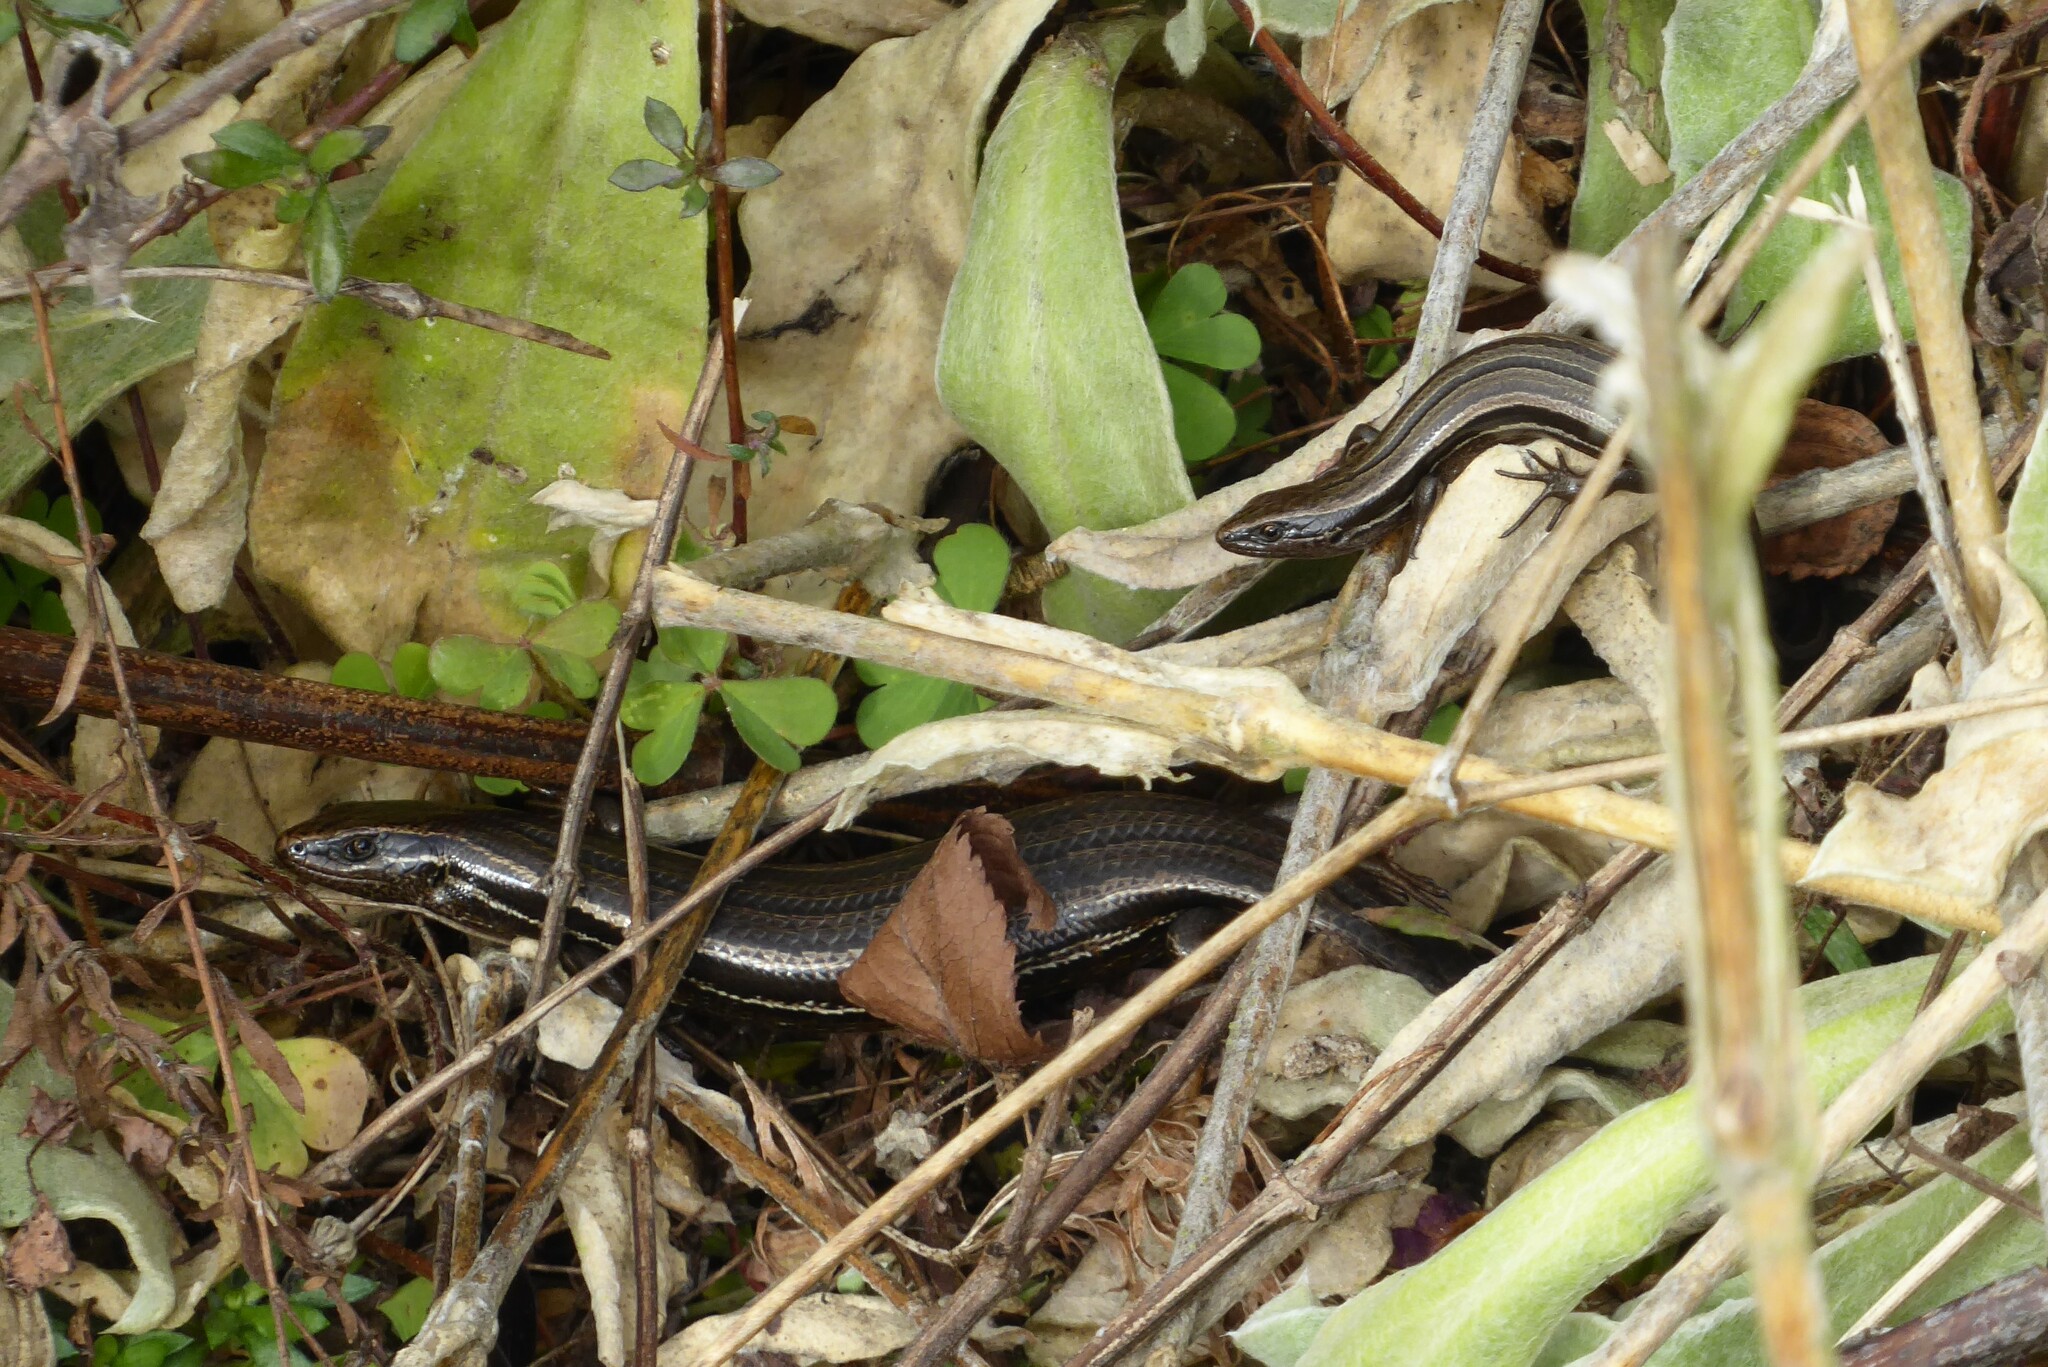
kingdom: Animalia
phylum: Chordata
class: Squamata
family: Scincidae
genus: Oligosoma
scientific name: Oligosoma polychroma
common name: Common new zealand skink
